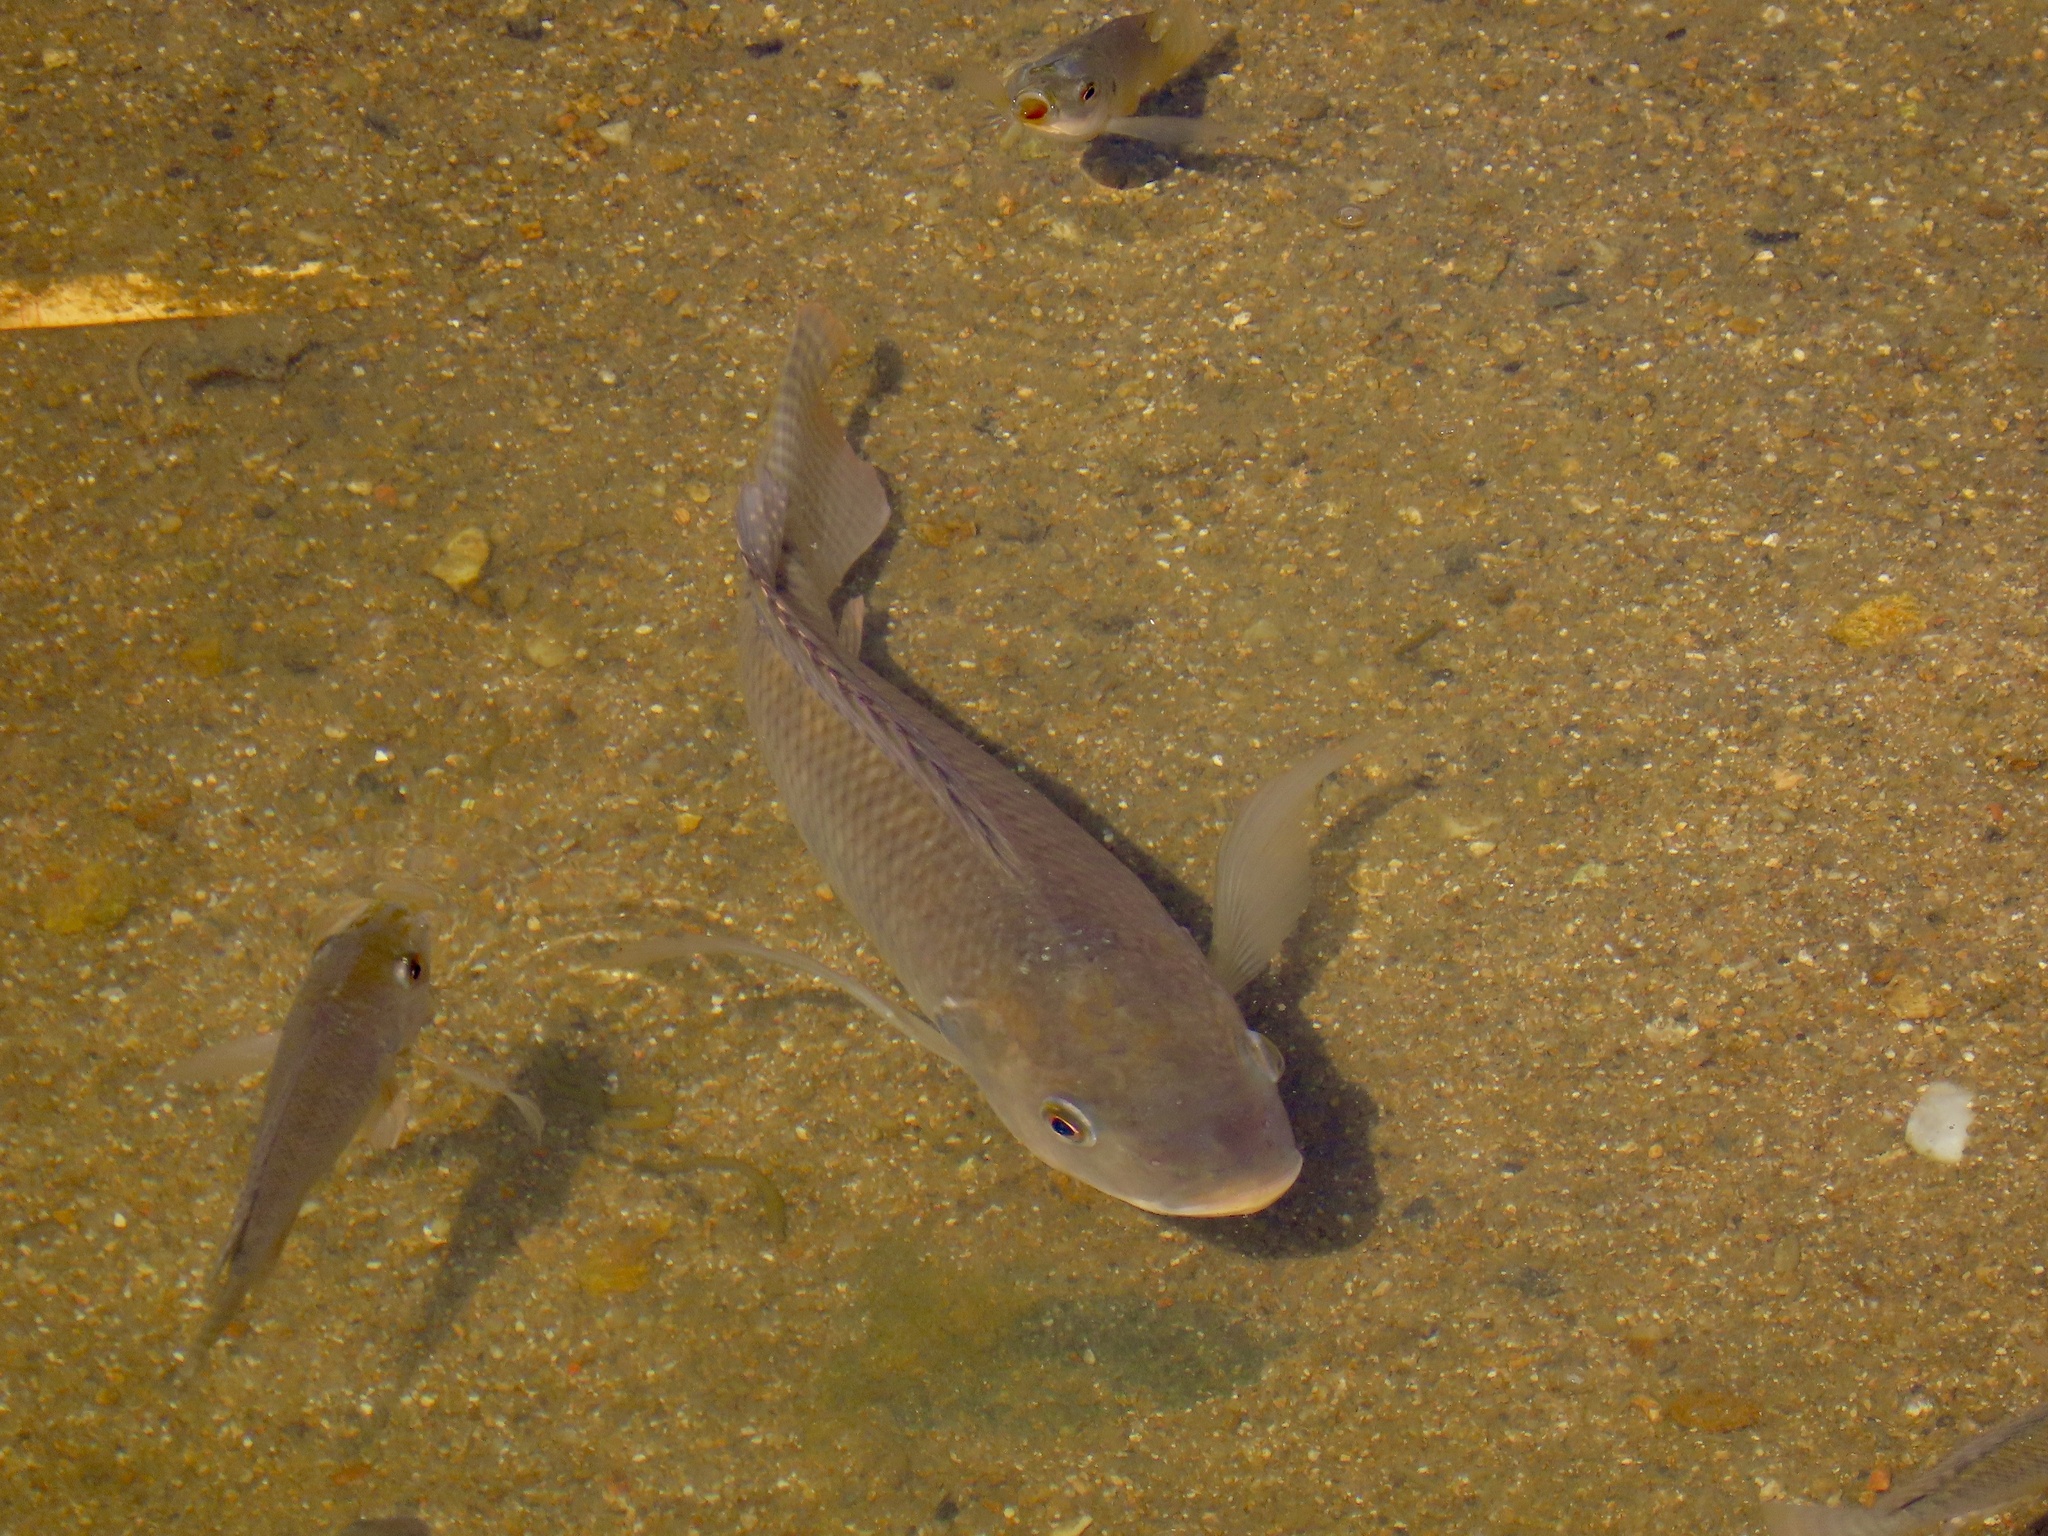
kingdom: Animalia
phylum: Chordata
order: Perciformes
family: Cichlidae
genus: Oreochromis
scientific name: Oreochromis niloticus
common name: Nile tilapia
